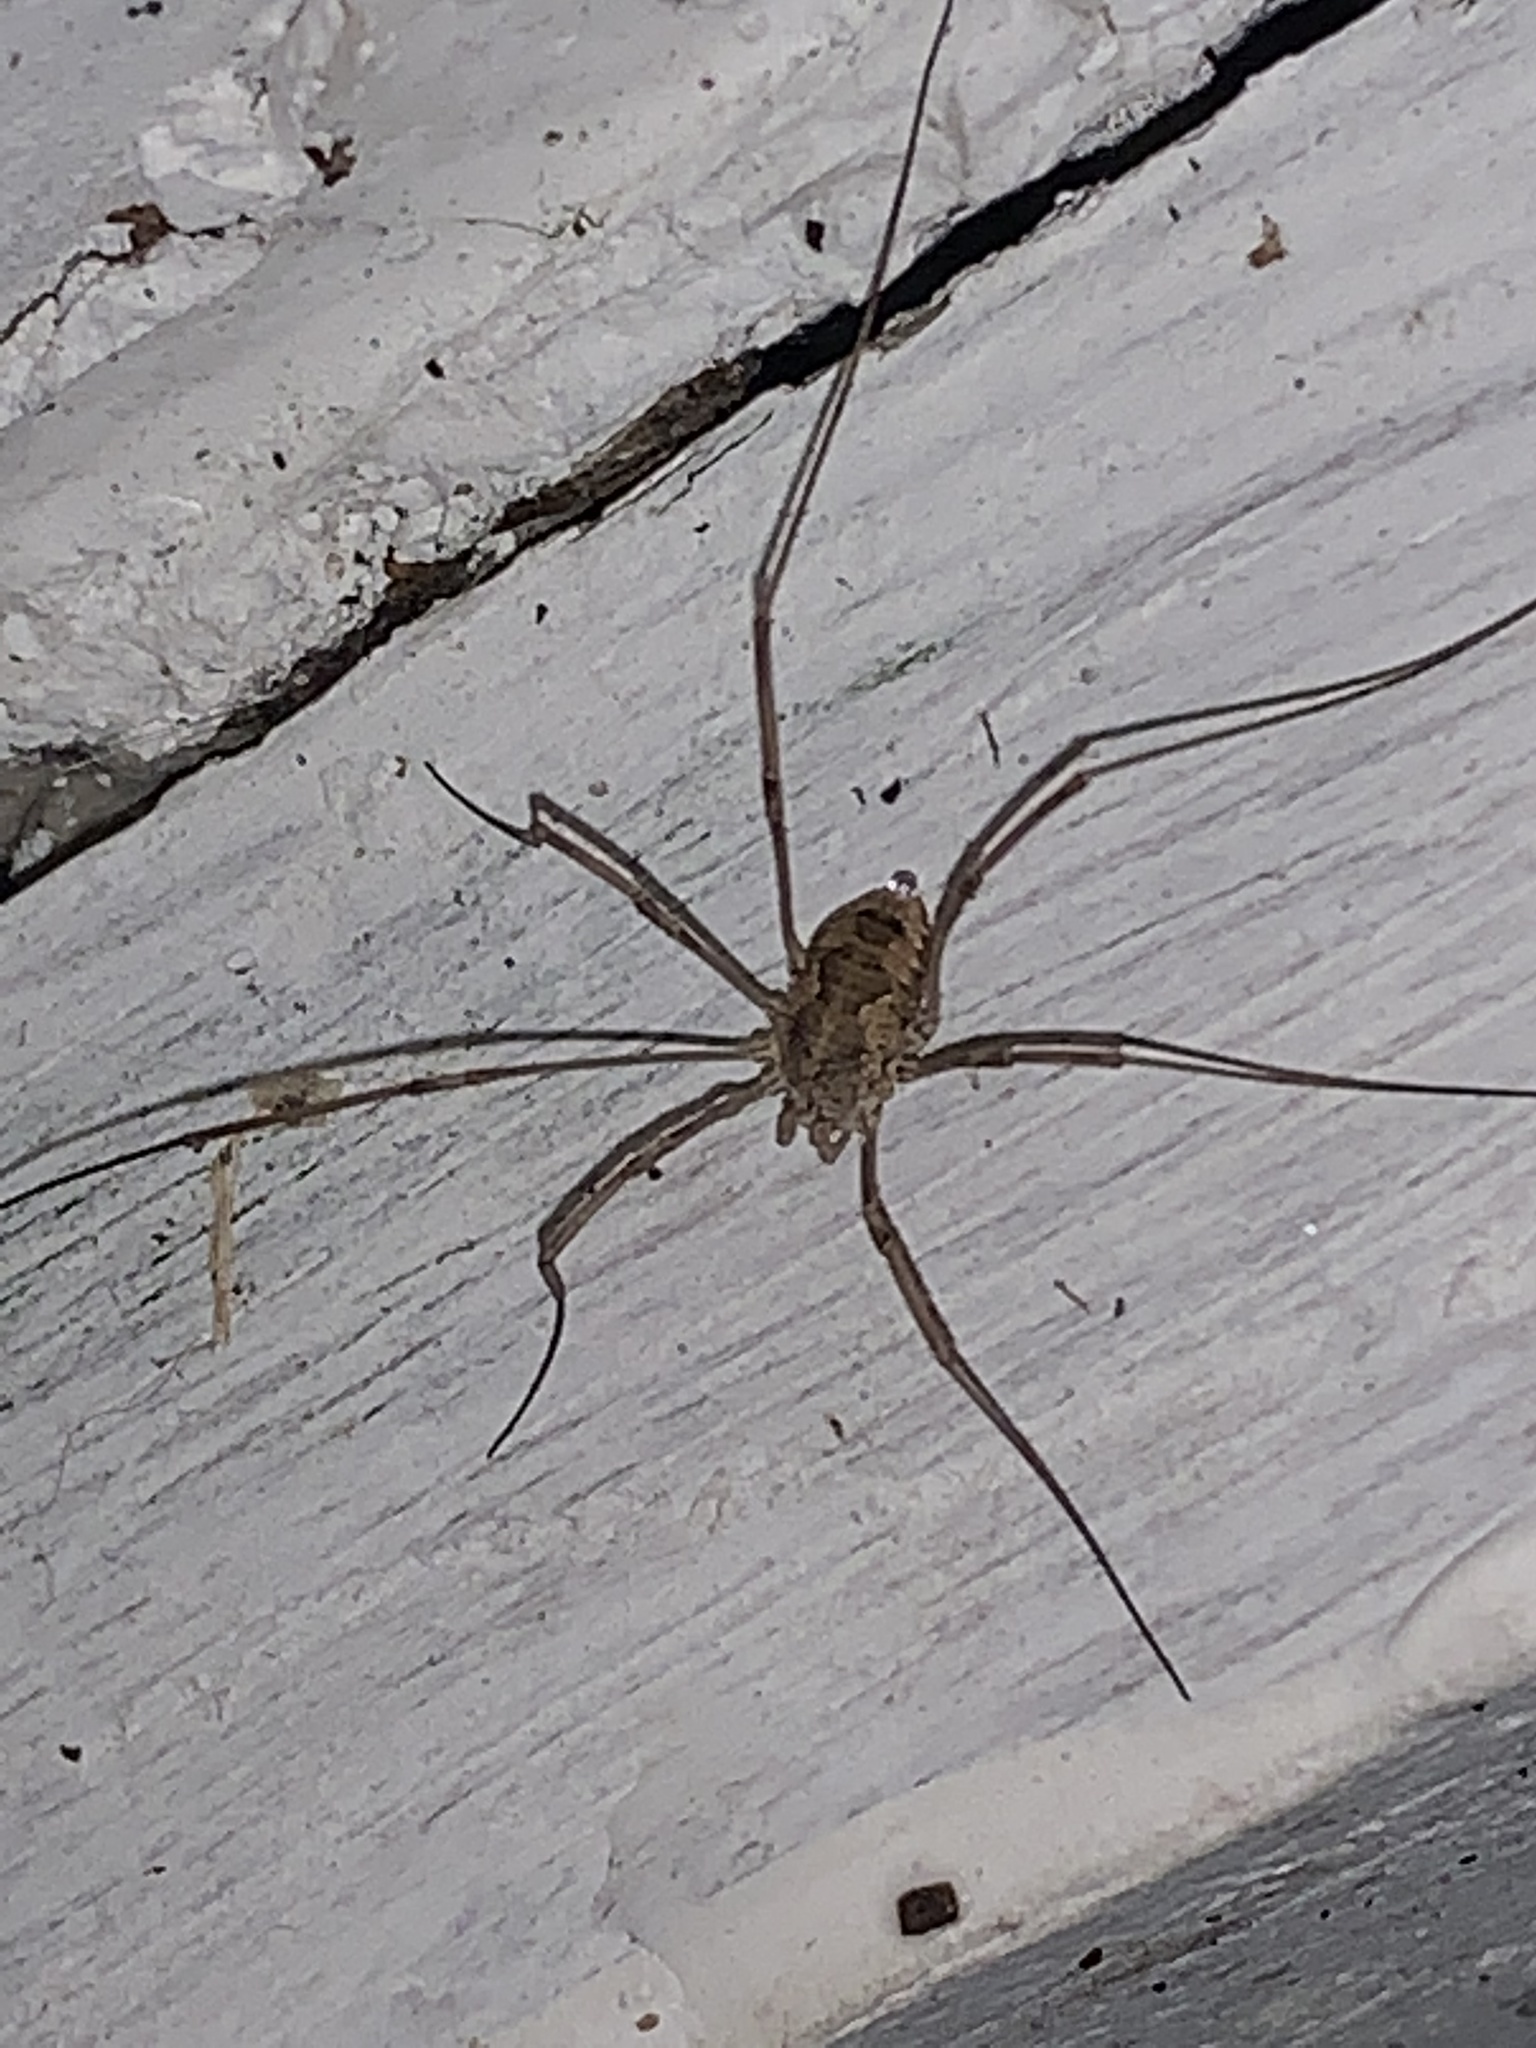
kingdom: Animalia
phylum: Arthropoda
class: Arachnida
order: Opiliones
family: Phalangiidae
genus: Phalangium
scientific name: Phalangium opilio
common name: Daddy longleg
